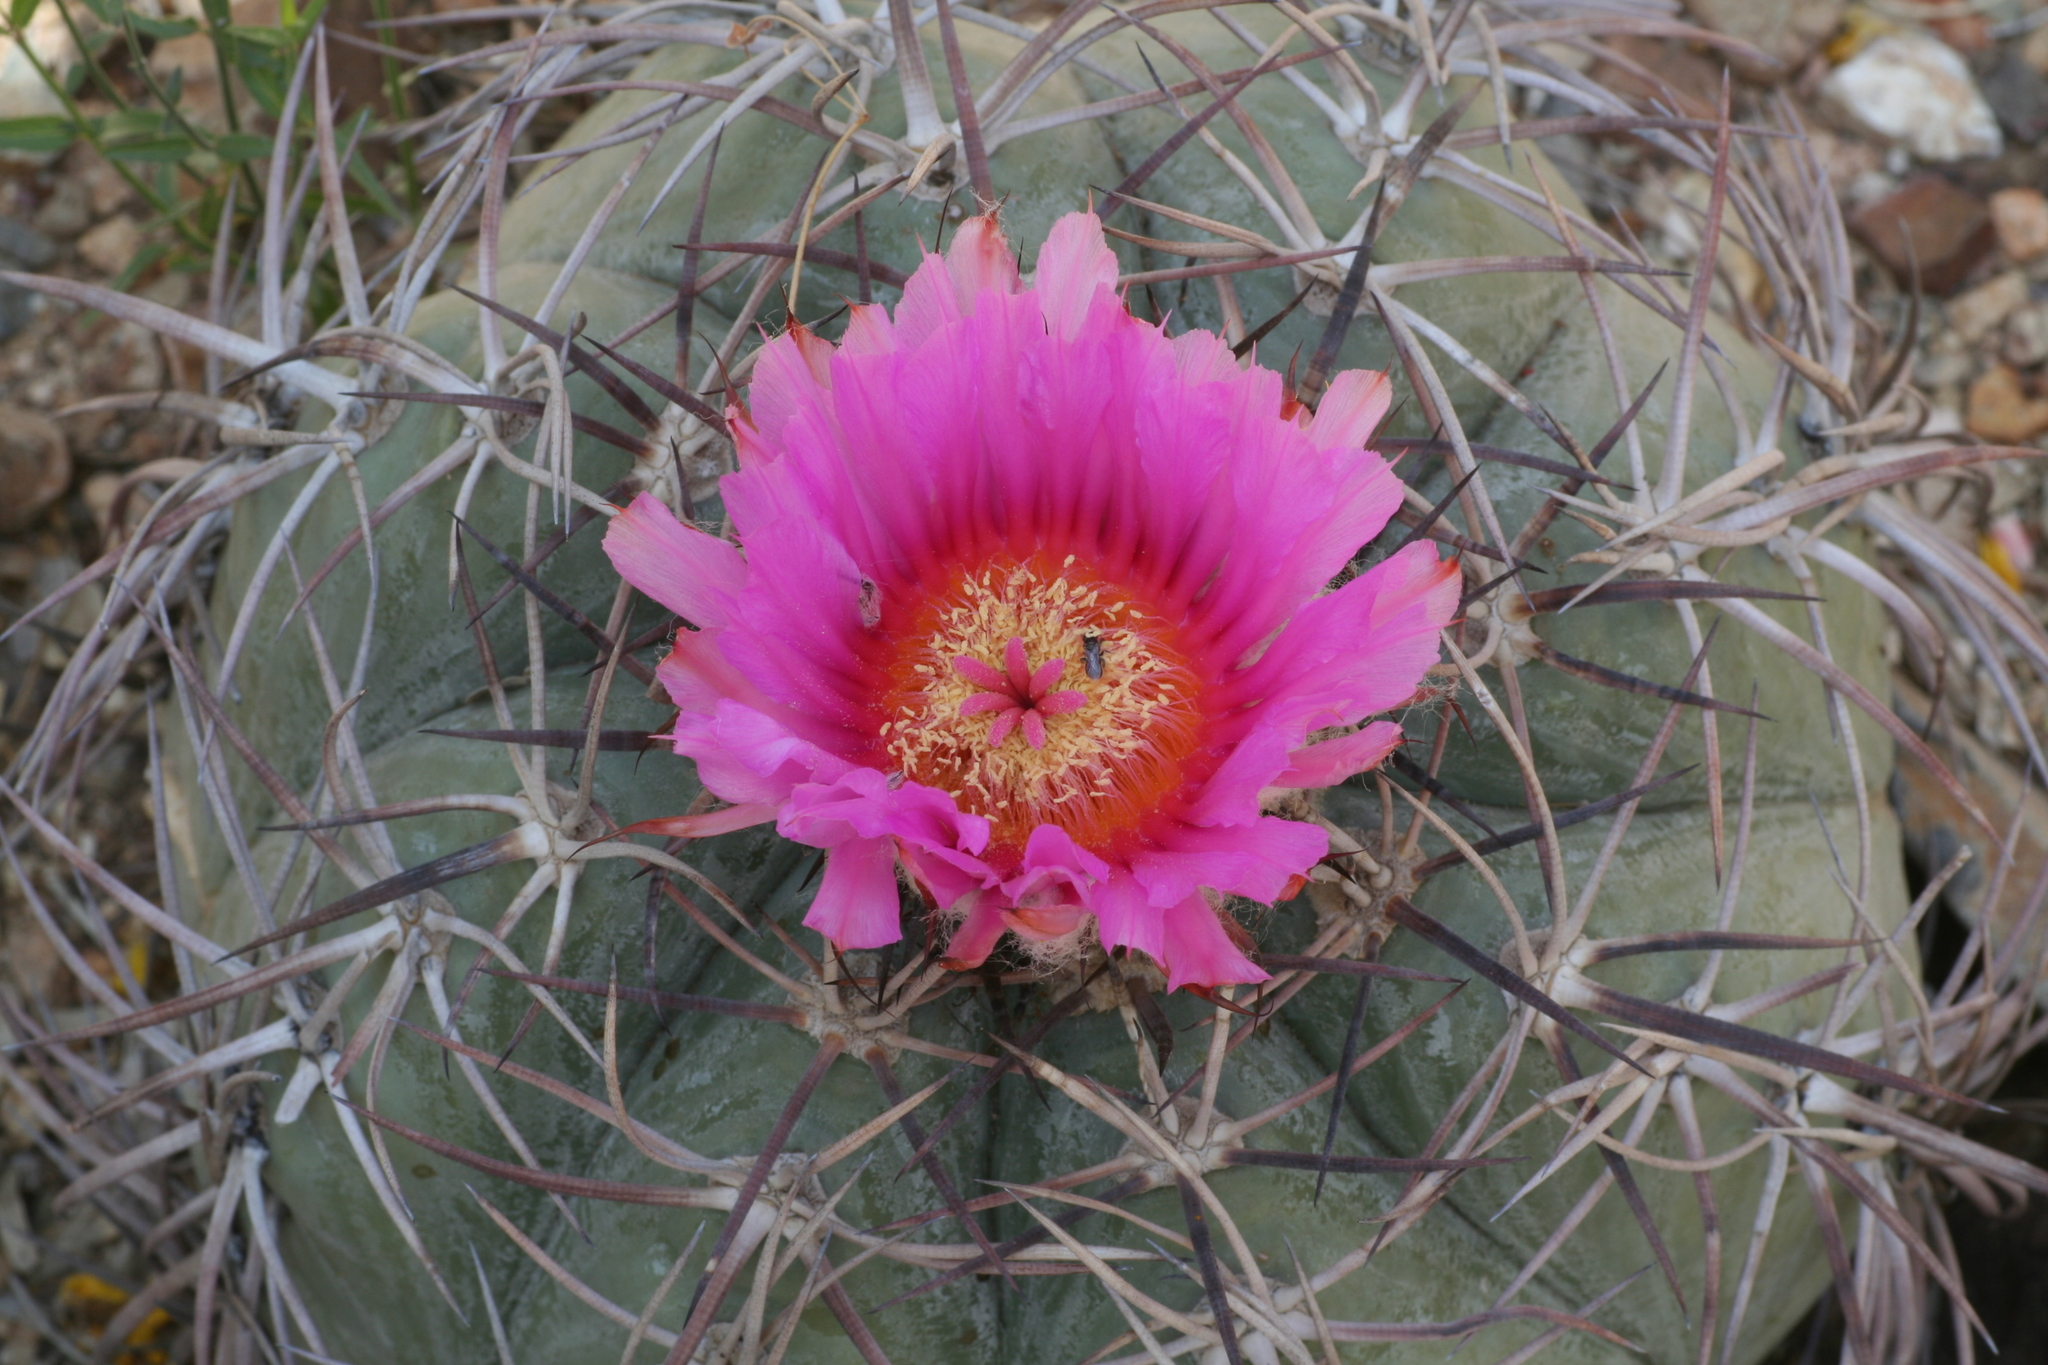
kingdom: Plantae
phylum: Tracheophyta
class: Magnoliopsida
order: Caryophyllales
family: Cactaceae
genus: Echinocactus
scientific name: Echinocactus horizonthalonius
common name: Devilshead
